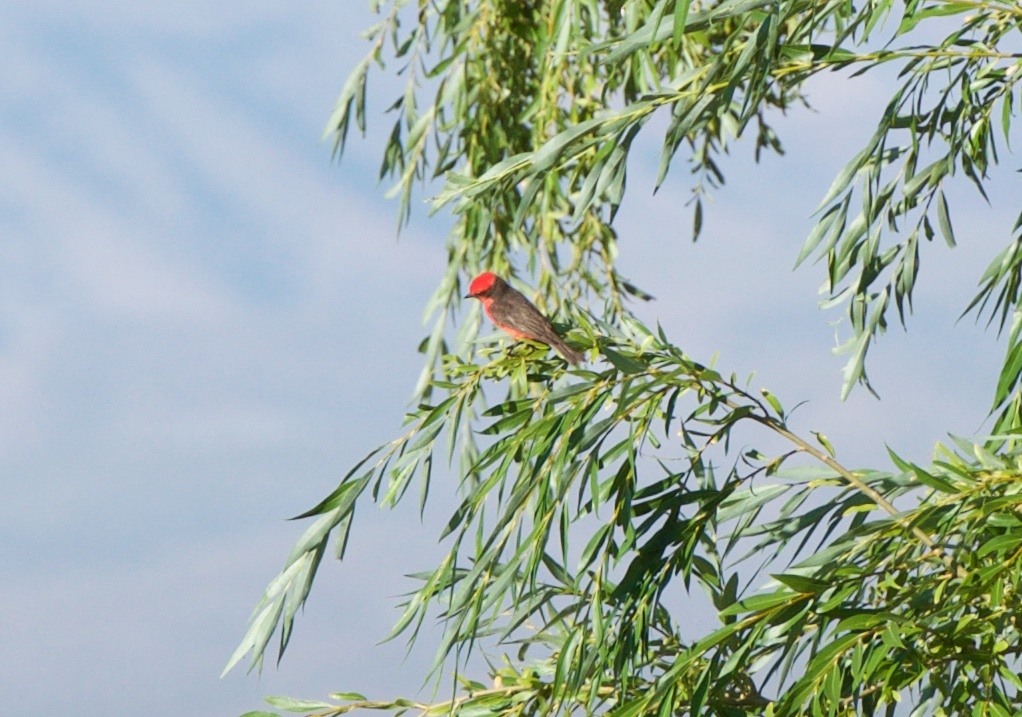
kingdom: Animalia
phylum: Chordata
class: Aves
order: Passeriformes
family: Tyrannidae
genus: Pyrocephalus
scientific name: Pyrocephalus rubinus
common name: Vermilion flycatcher
